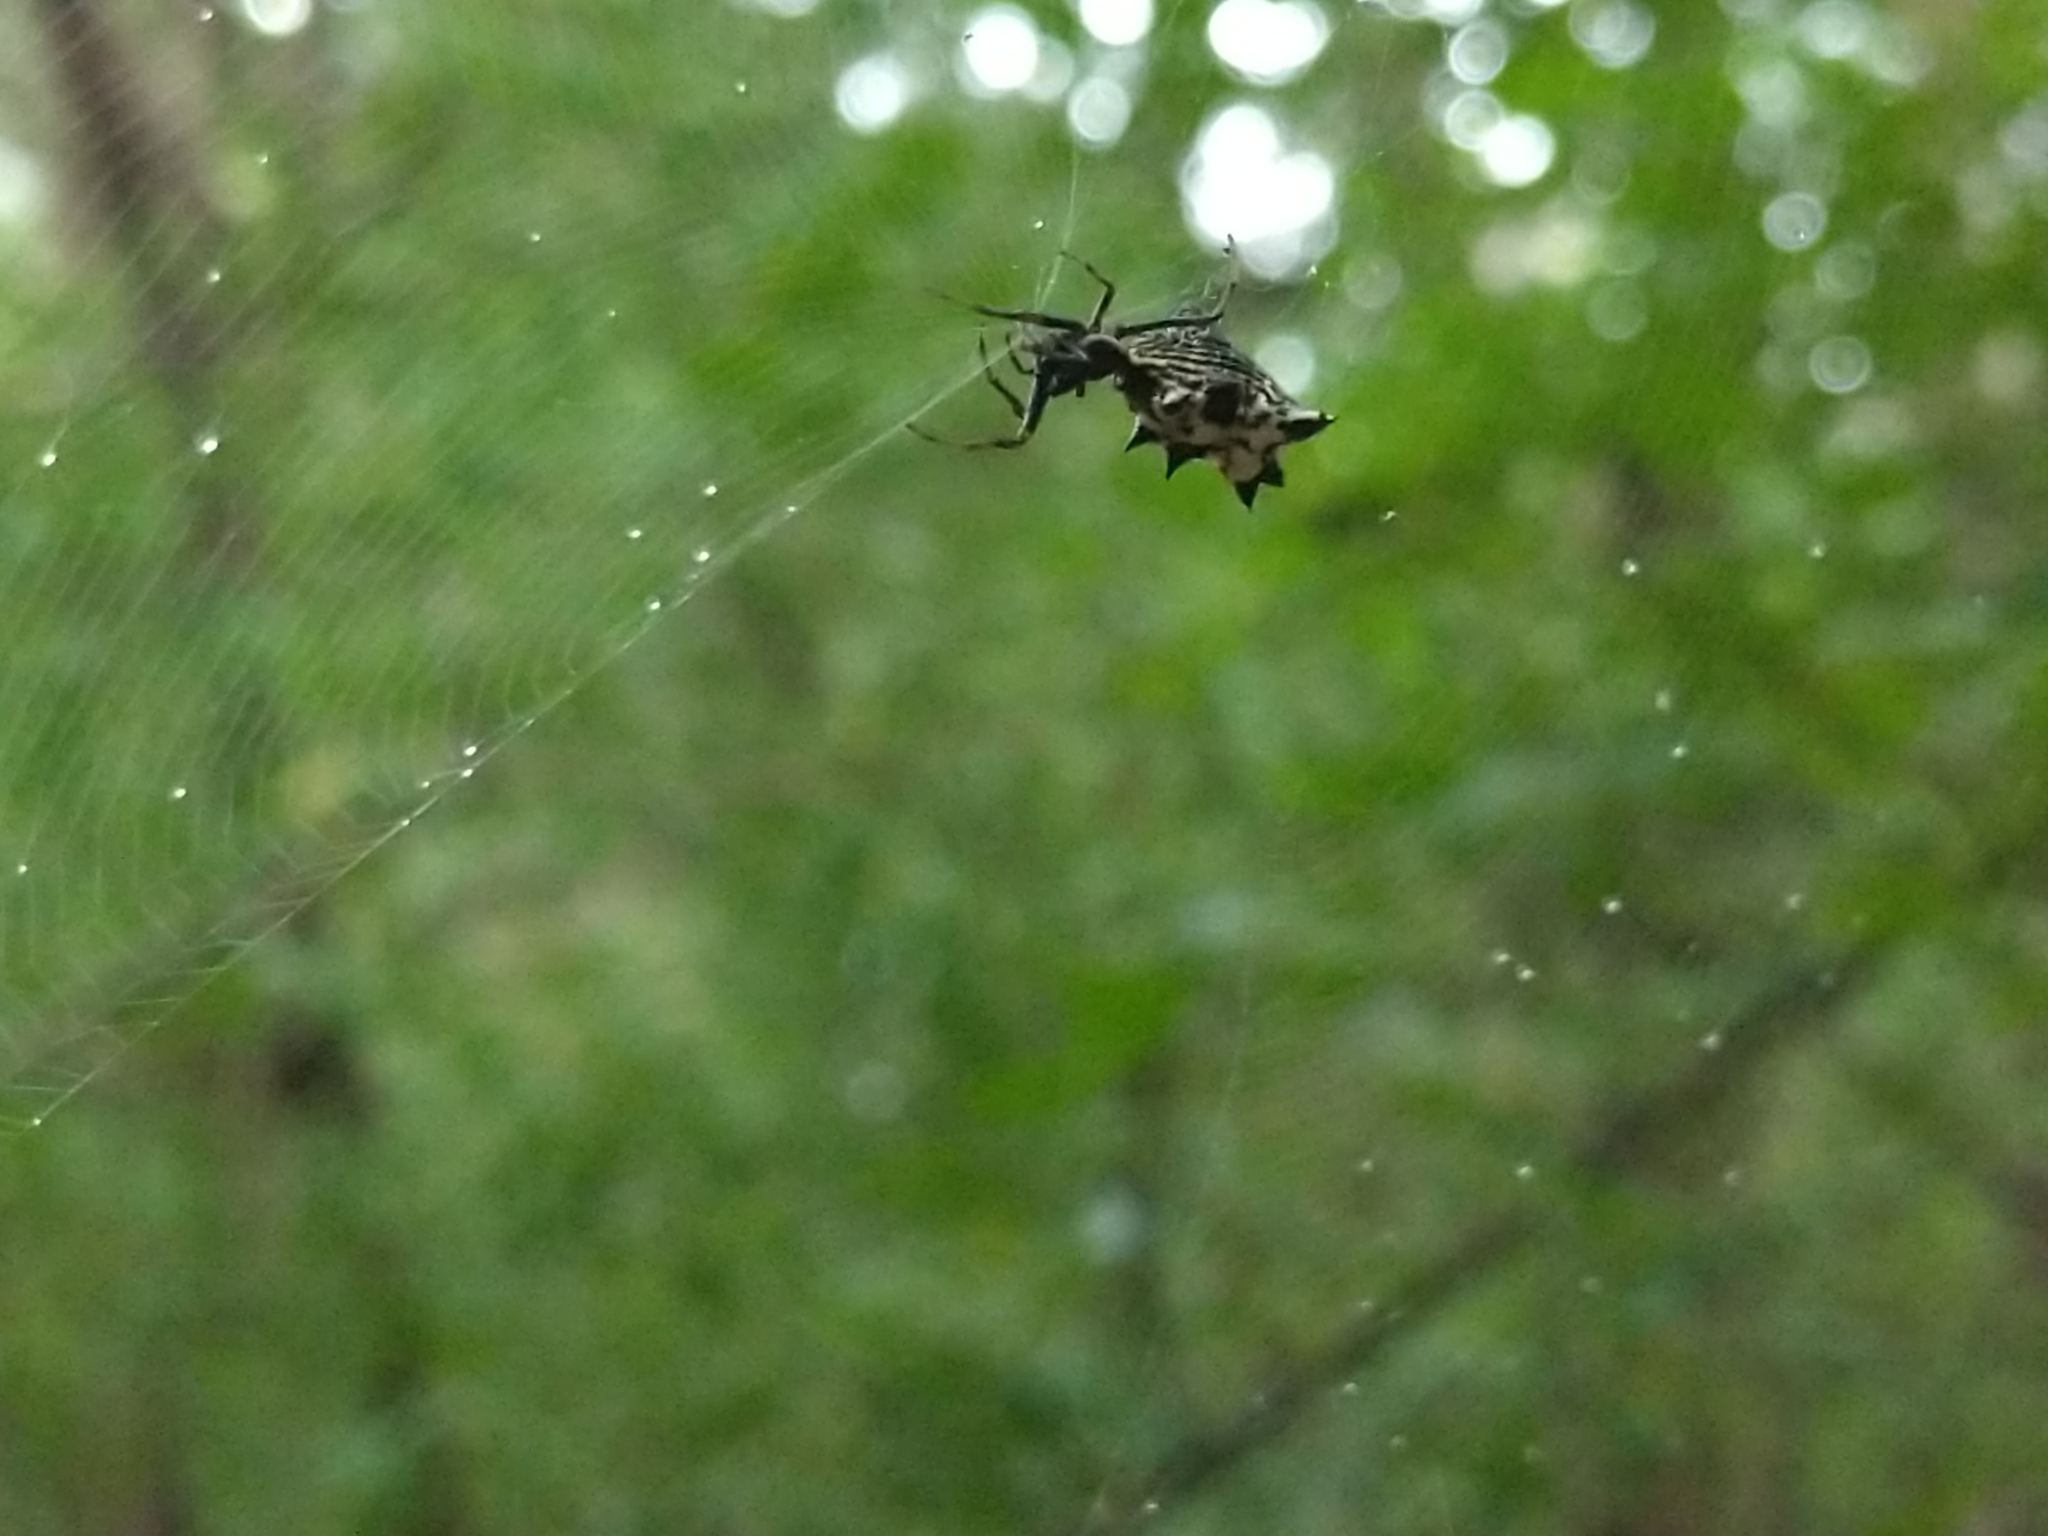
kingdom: Animalia
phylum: Arthropoda
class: Arachnida
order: Araneae
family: Araneidae
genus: Micrathena
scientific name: Micrathena gracilis
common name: Orb weavers
